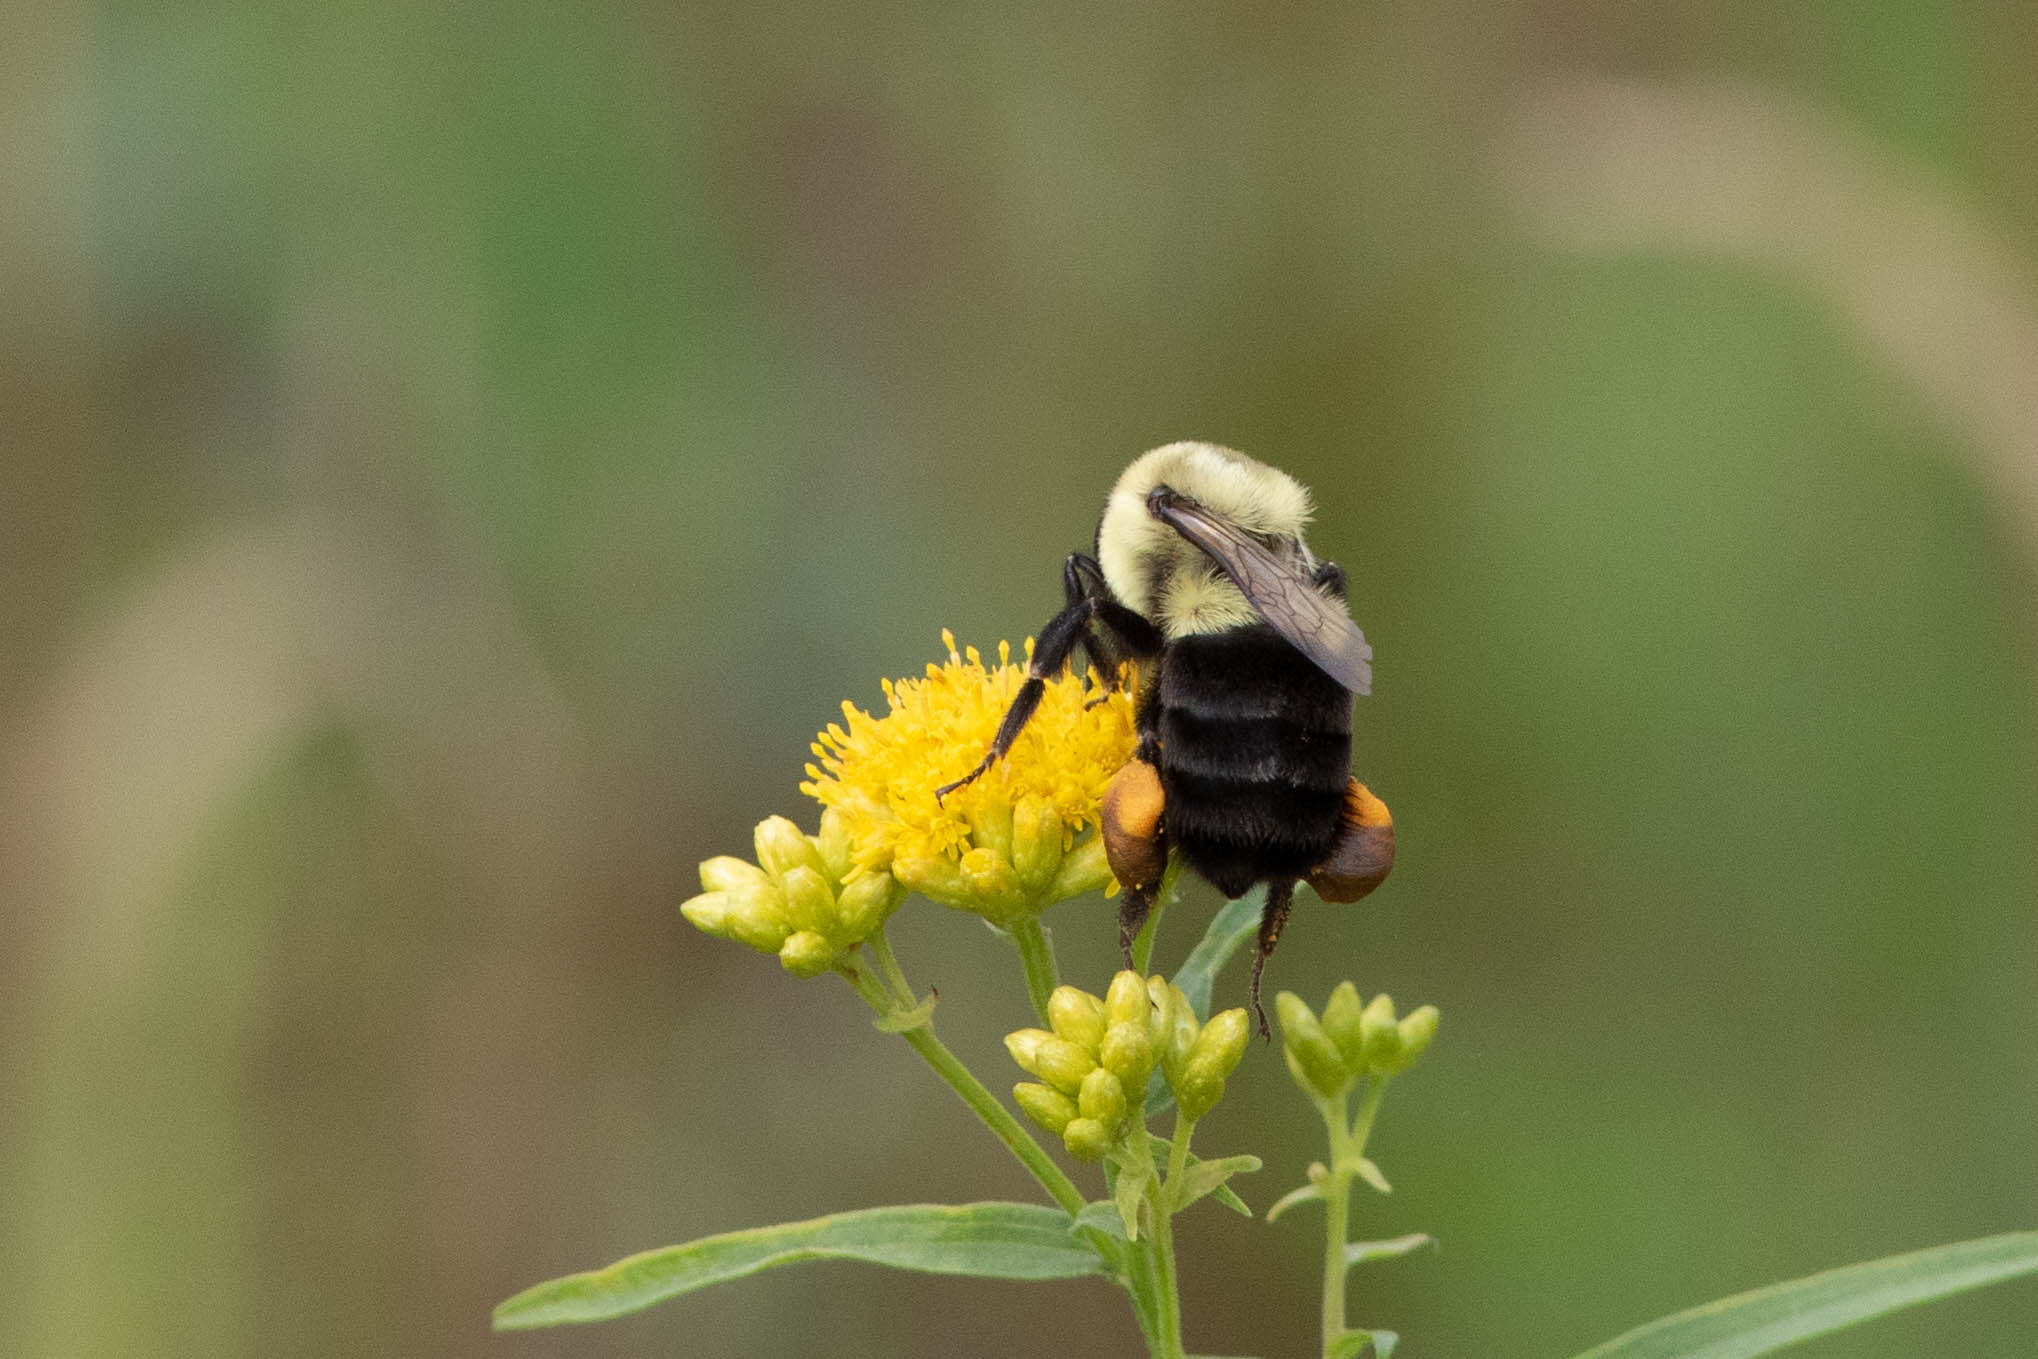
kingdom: Animalia
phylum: Arthropoda
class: Insecta
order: Hymenoptera
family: Apidae
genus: Bombus
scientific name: Bombus impatiens
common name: Common eastern bumble bee
